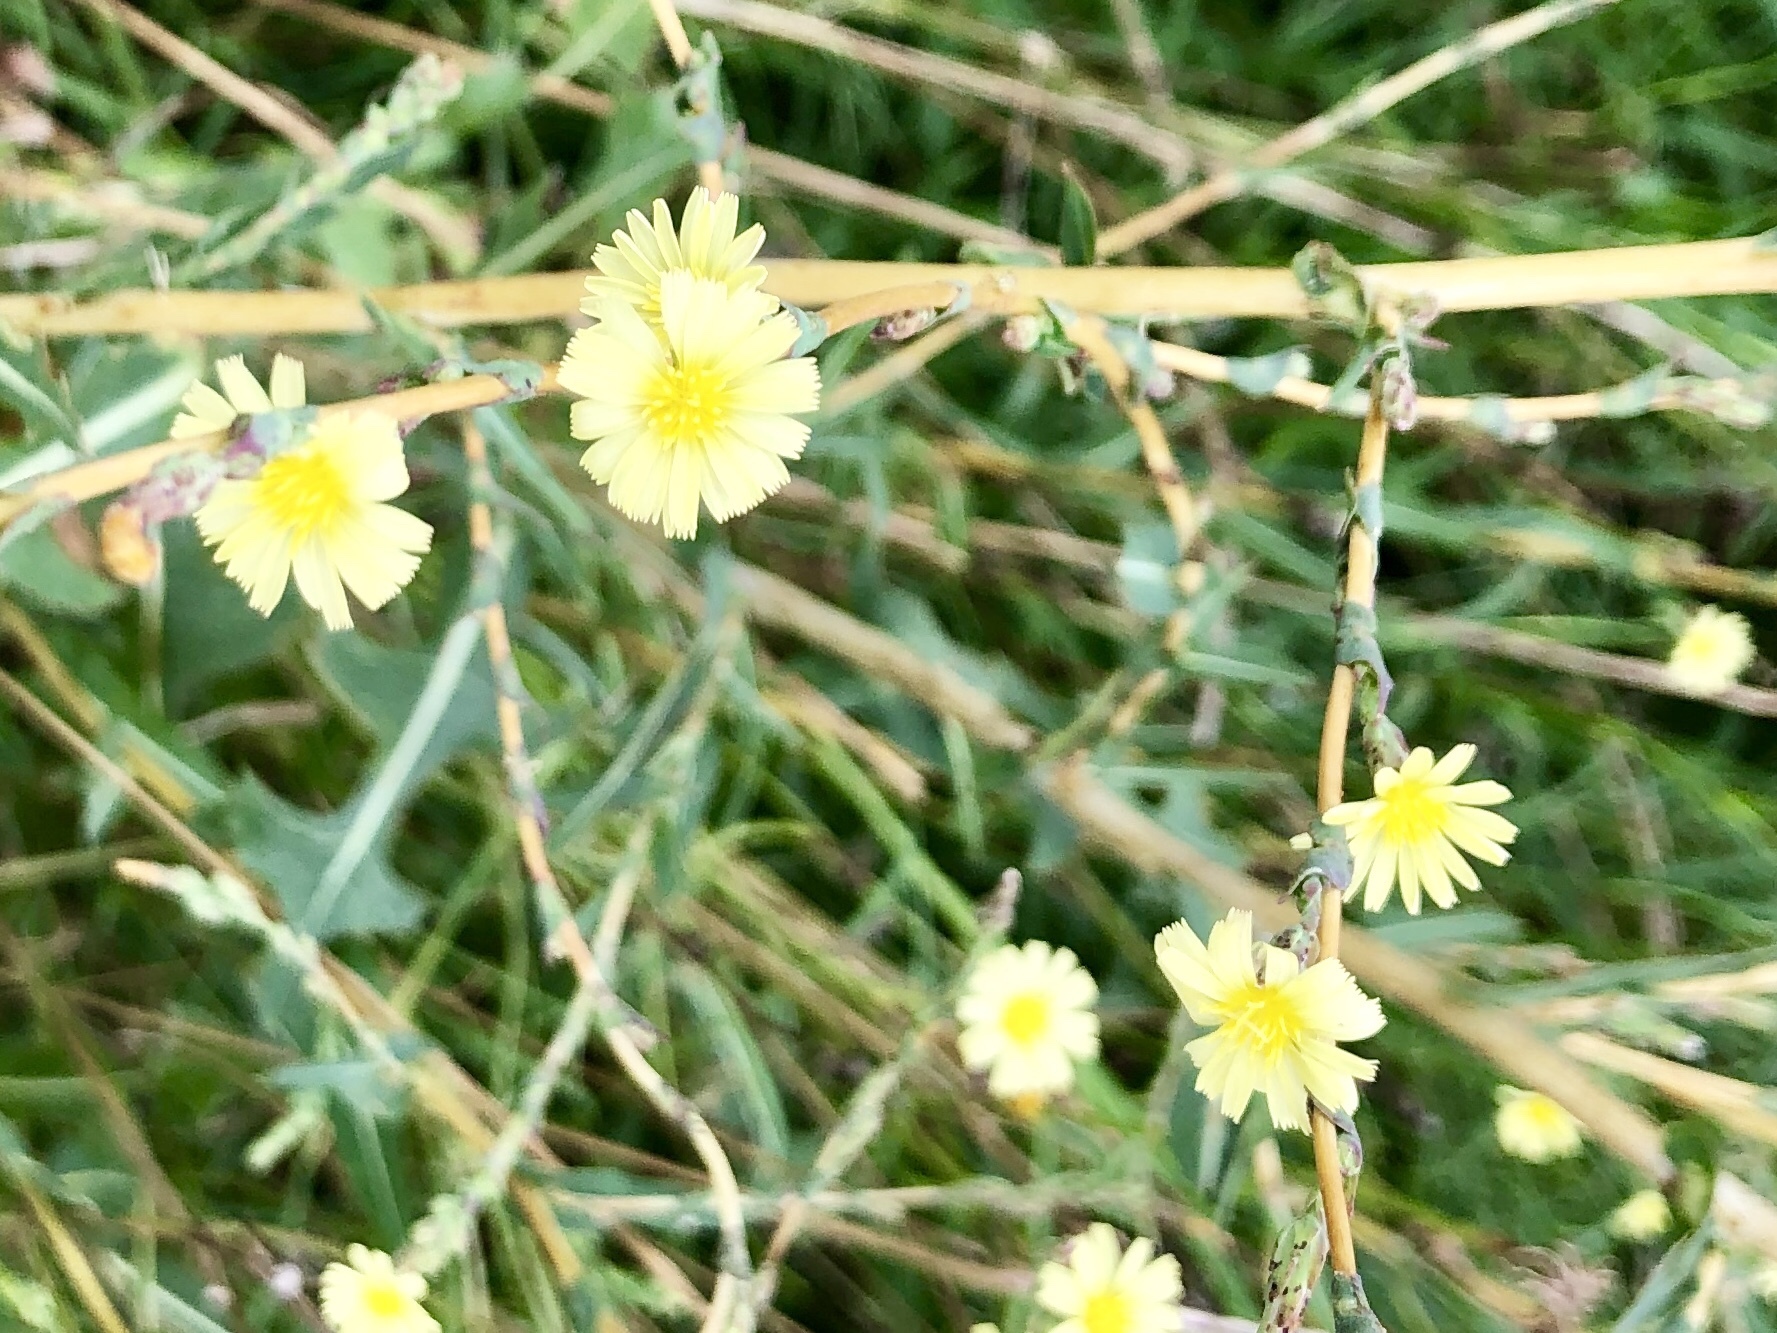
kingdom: Plantae
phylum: Tracheophyta
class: Magnoliopsida
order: Asterales
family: Asteraceae
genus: Lactuca
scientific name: Lactuca serriola
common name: Prickly lettuce
